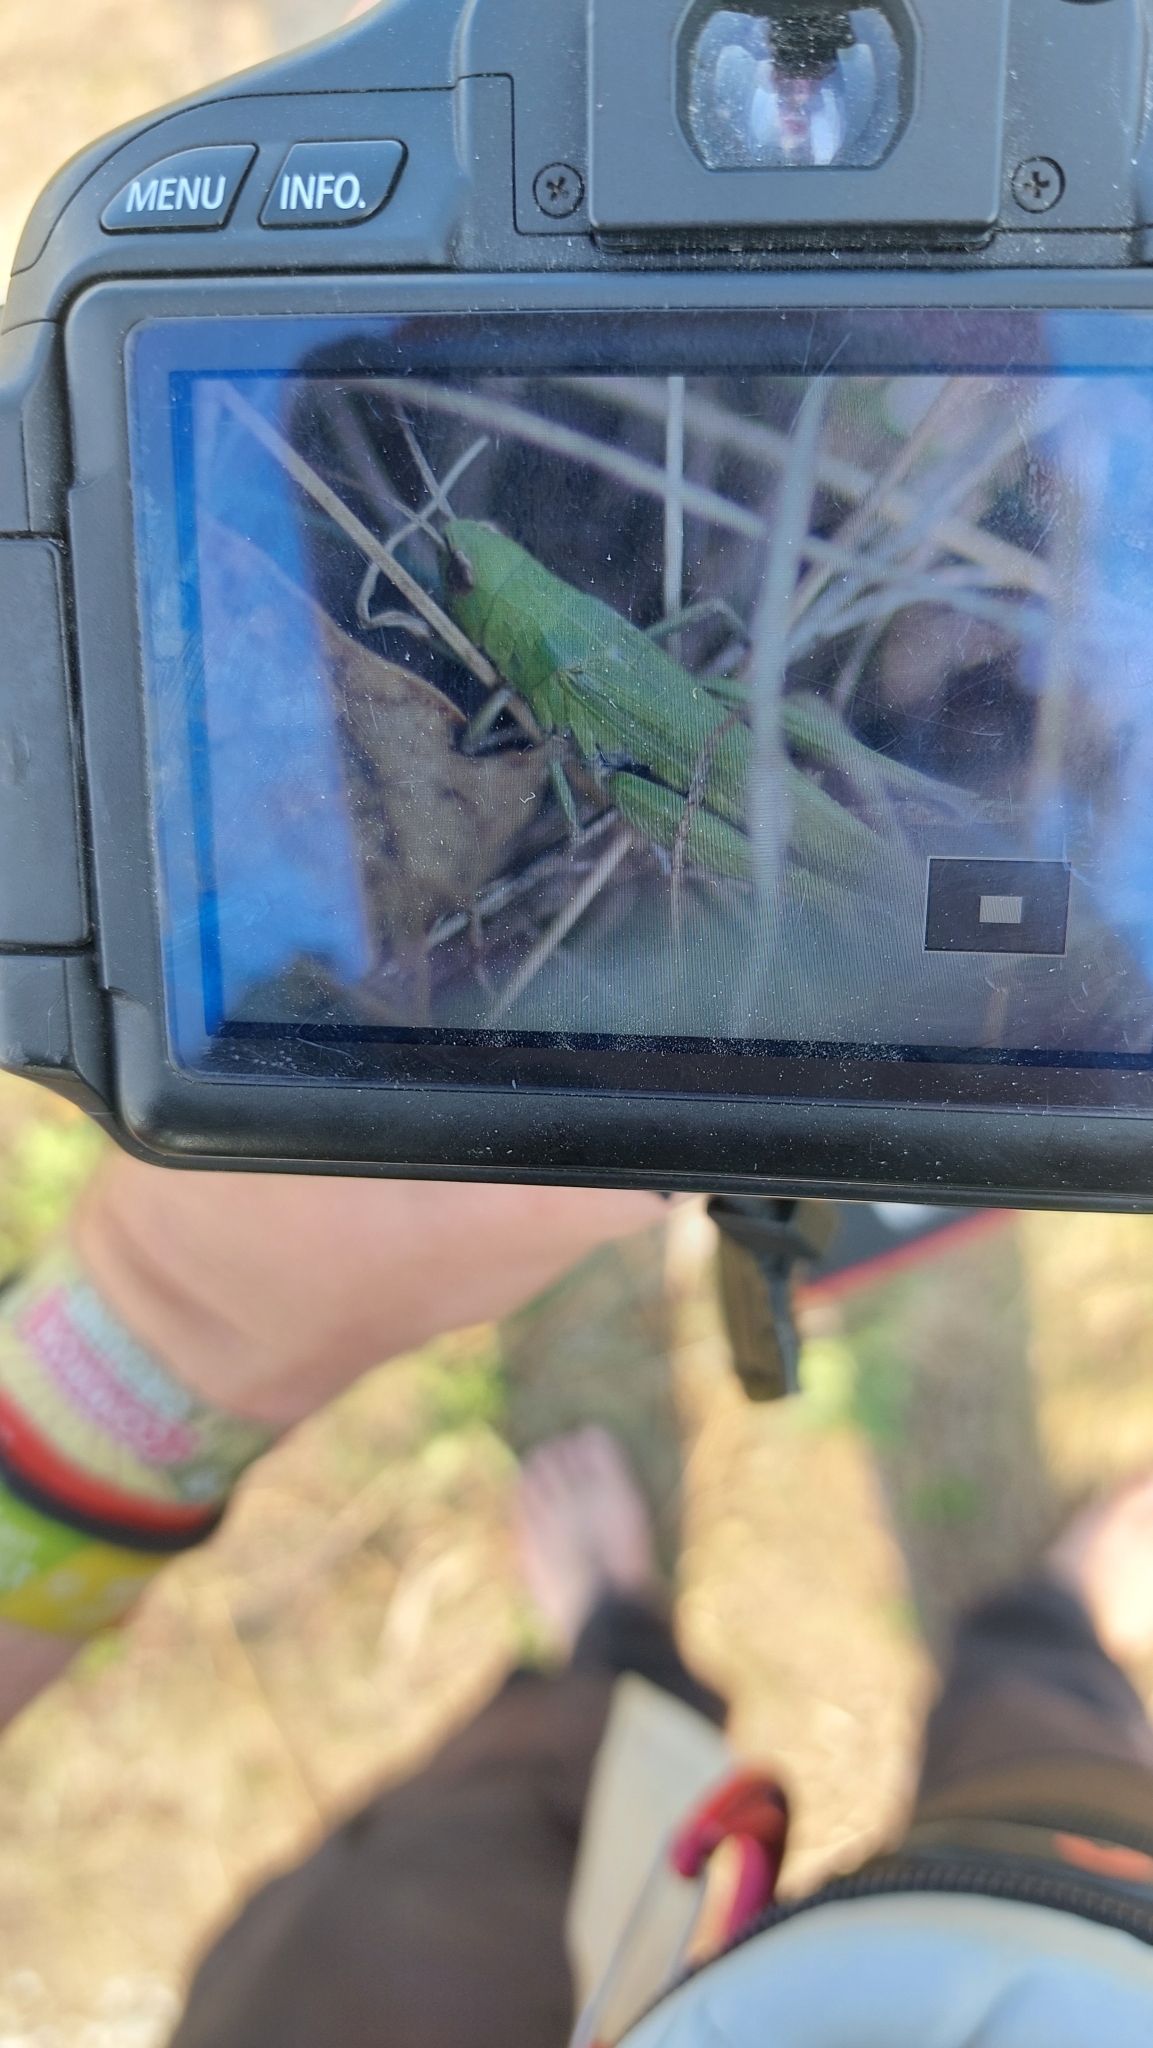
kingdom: Animalia
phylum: Arthropoda
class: Insecta
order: Orthoptera
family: Acrididae
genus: Chorthippus
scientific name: Chorthippus dorsatus
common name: Steppe grasshopper
